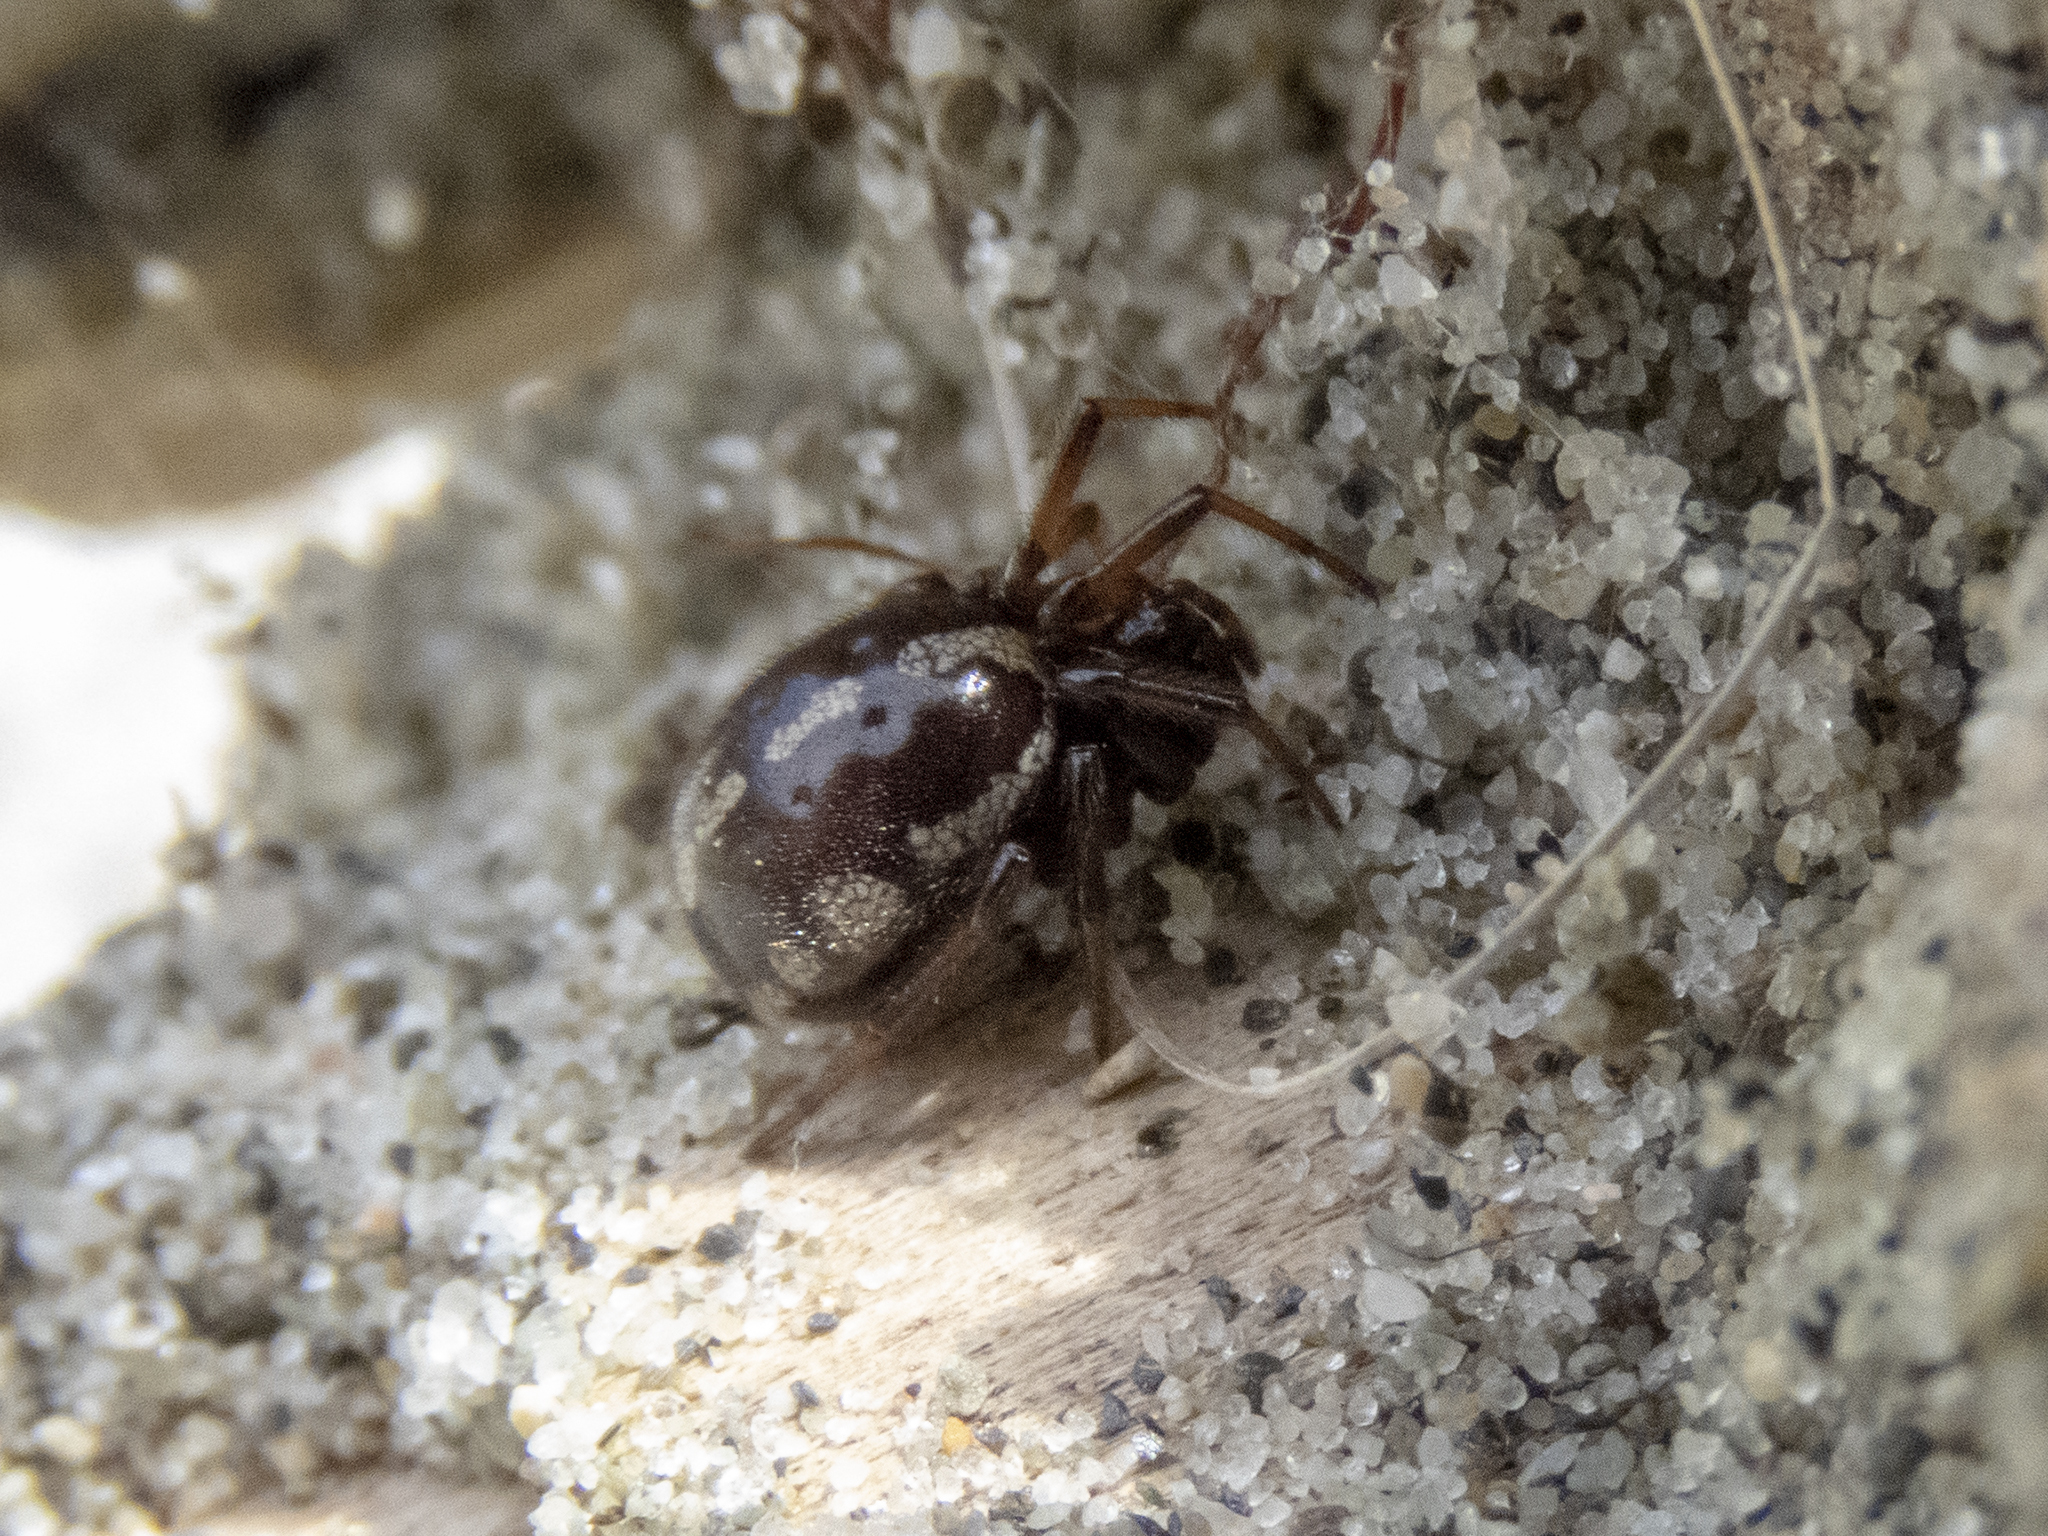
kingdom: Animalia
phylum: Arthropoda
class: Arachnida
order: Araneae
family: Theridiidae
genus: Steatoda
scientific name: Steatoda lepida
